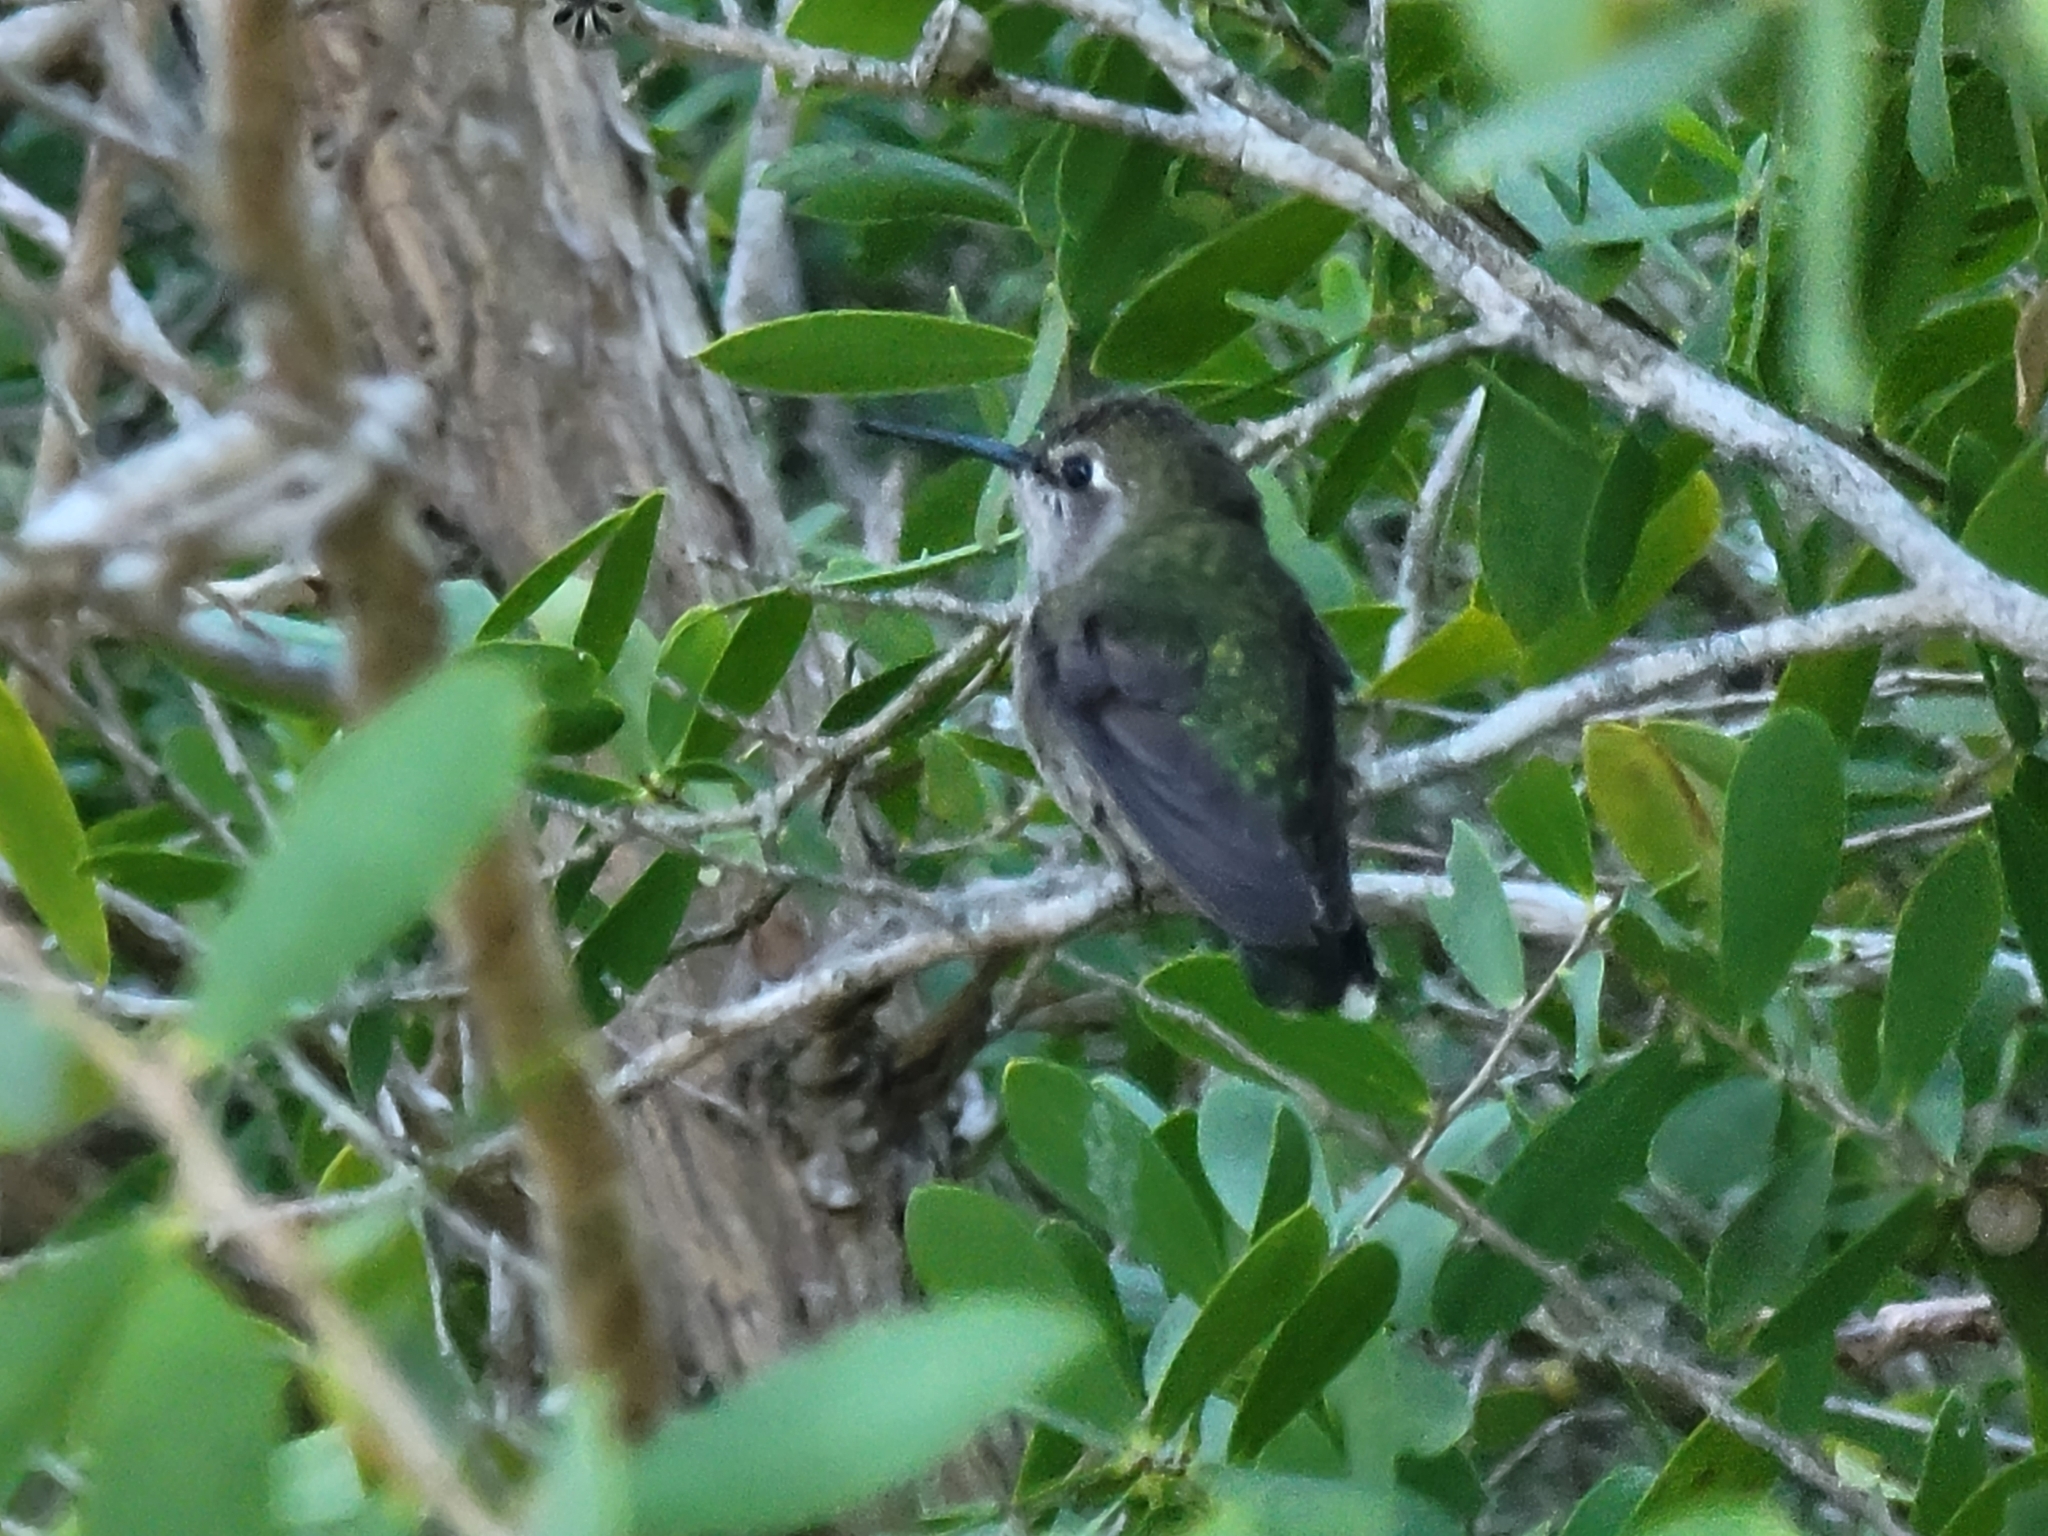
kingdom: Animalia
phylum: Chordata
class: Aves
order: Apodiformes
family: Trochilidae
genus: Calypte
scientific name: Calypte anna
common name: Anna's hummingbird
